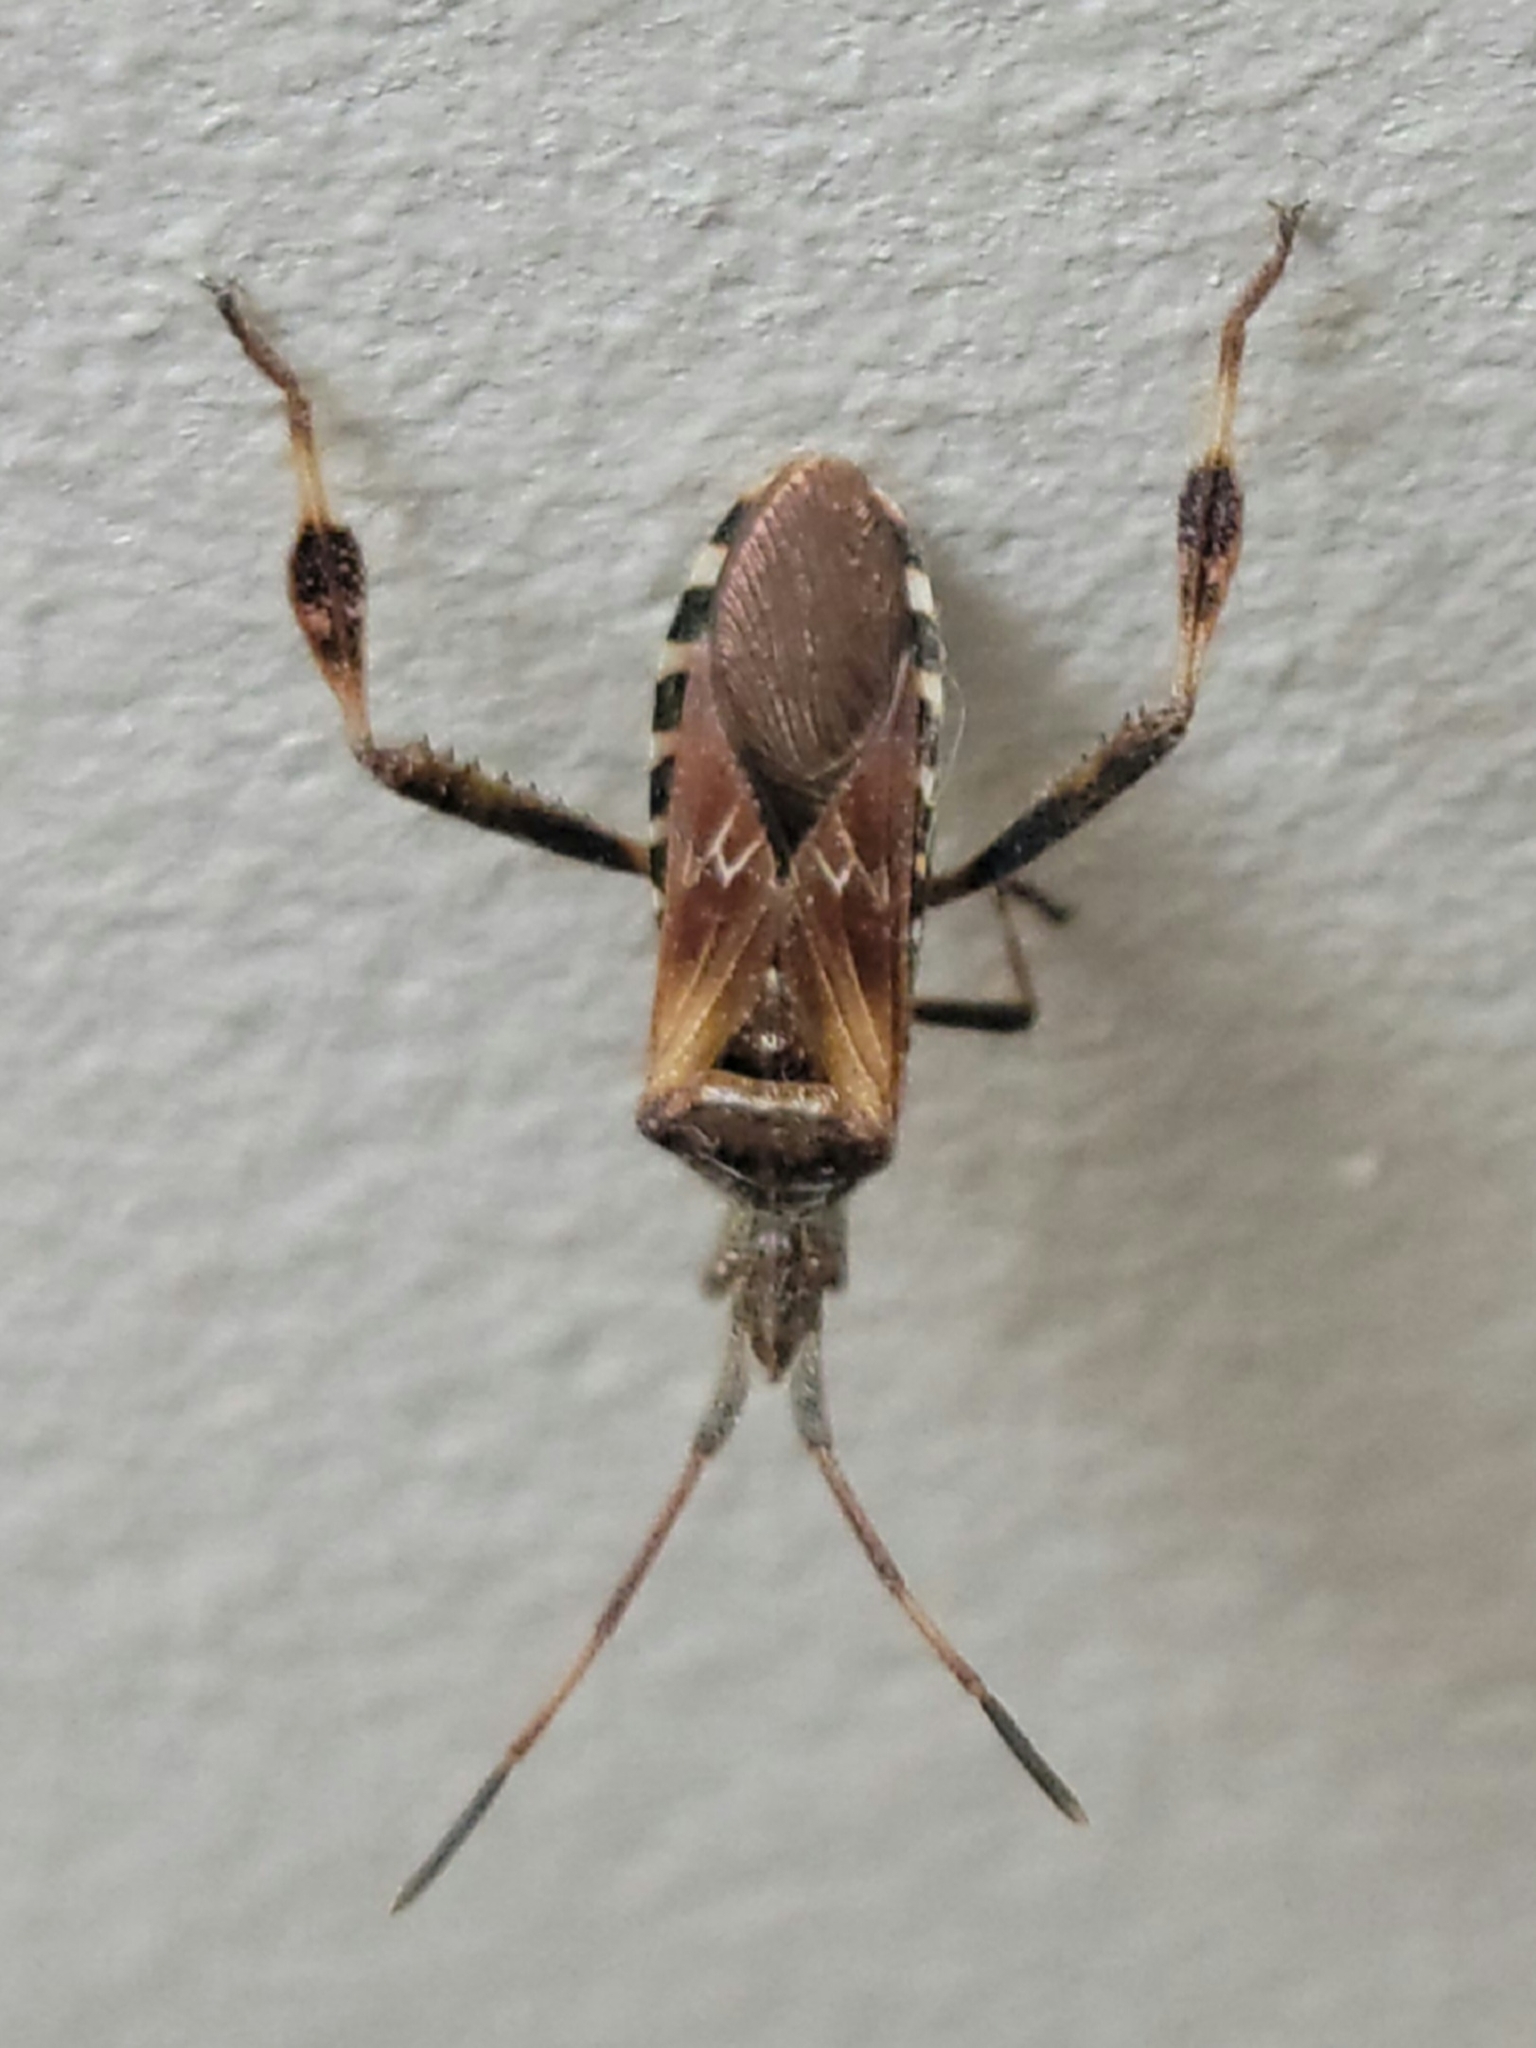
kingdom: Animalia
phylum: Arthropoda
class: Insecta
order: Hemiptera
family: Coreidae
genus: Leptoglossus
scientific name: Leptoglossus occidentalis
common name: Western conifer-seed bug
